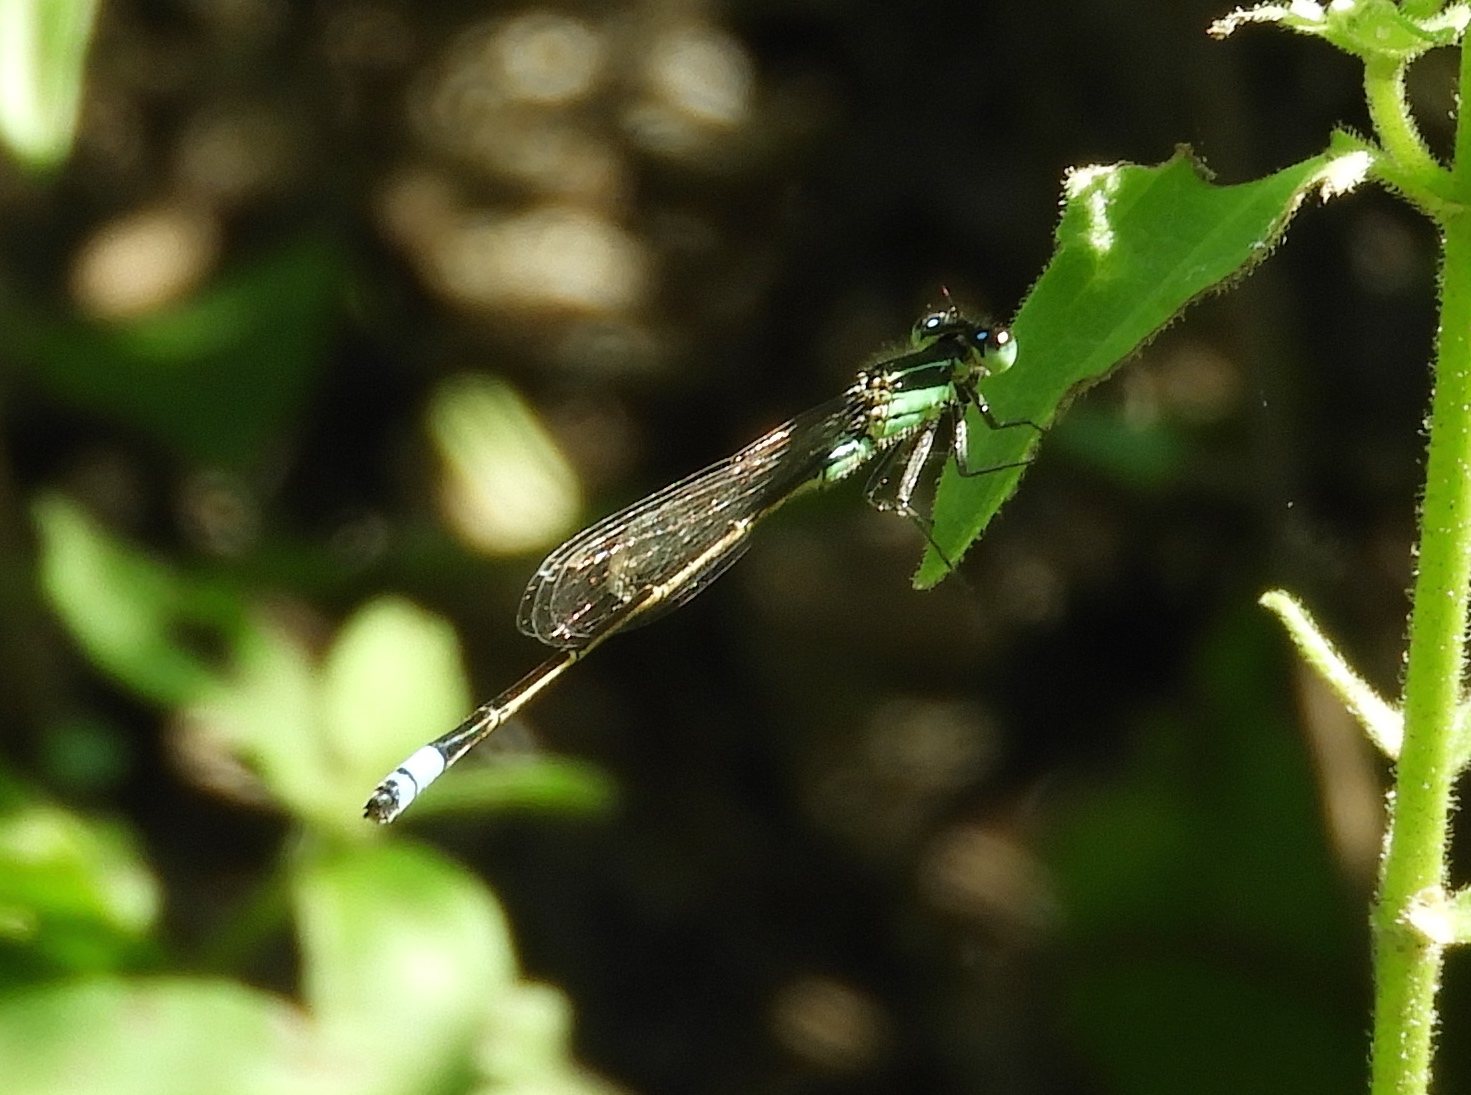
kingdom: Animalia
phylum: Arthropoda
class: Insecta
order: Odonata
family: Coenagrionidae
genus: Ischnura
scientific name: Ischnura ramburii
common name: Rambur's forktail
